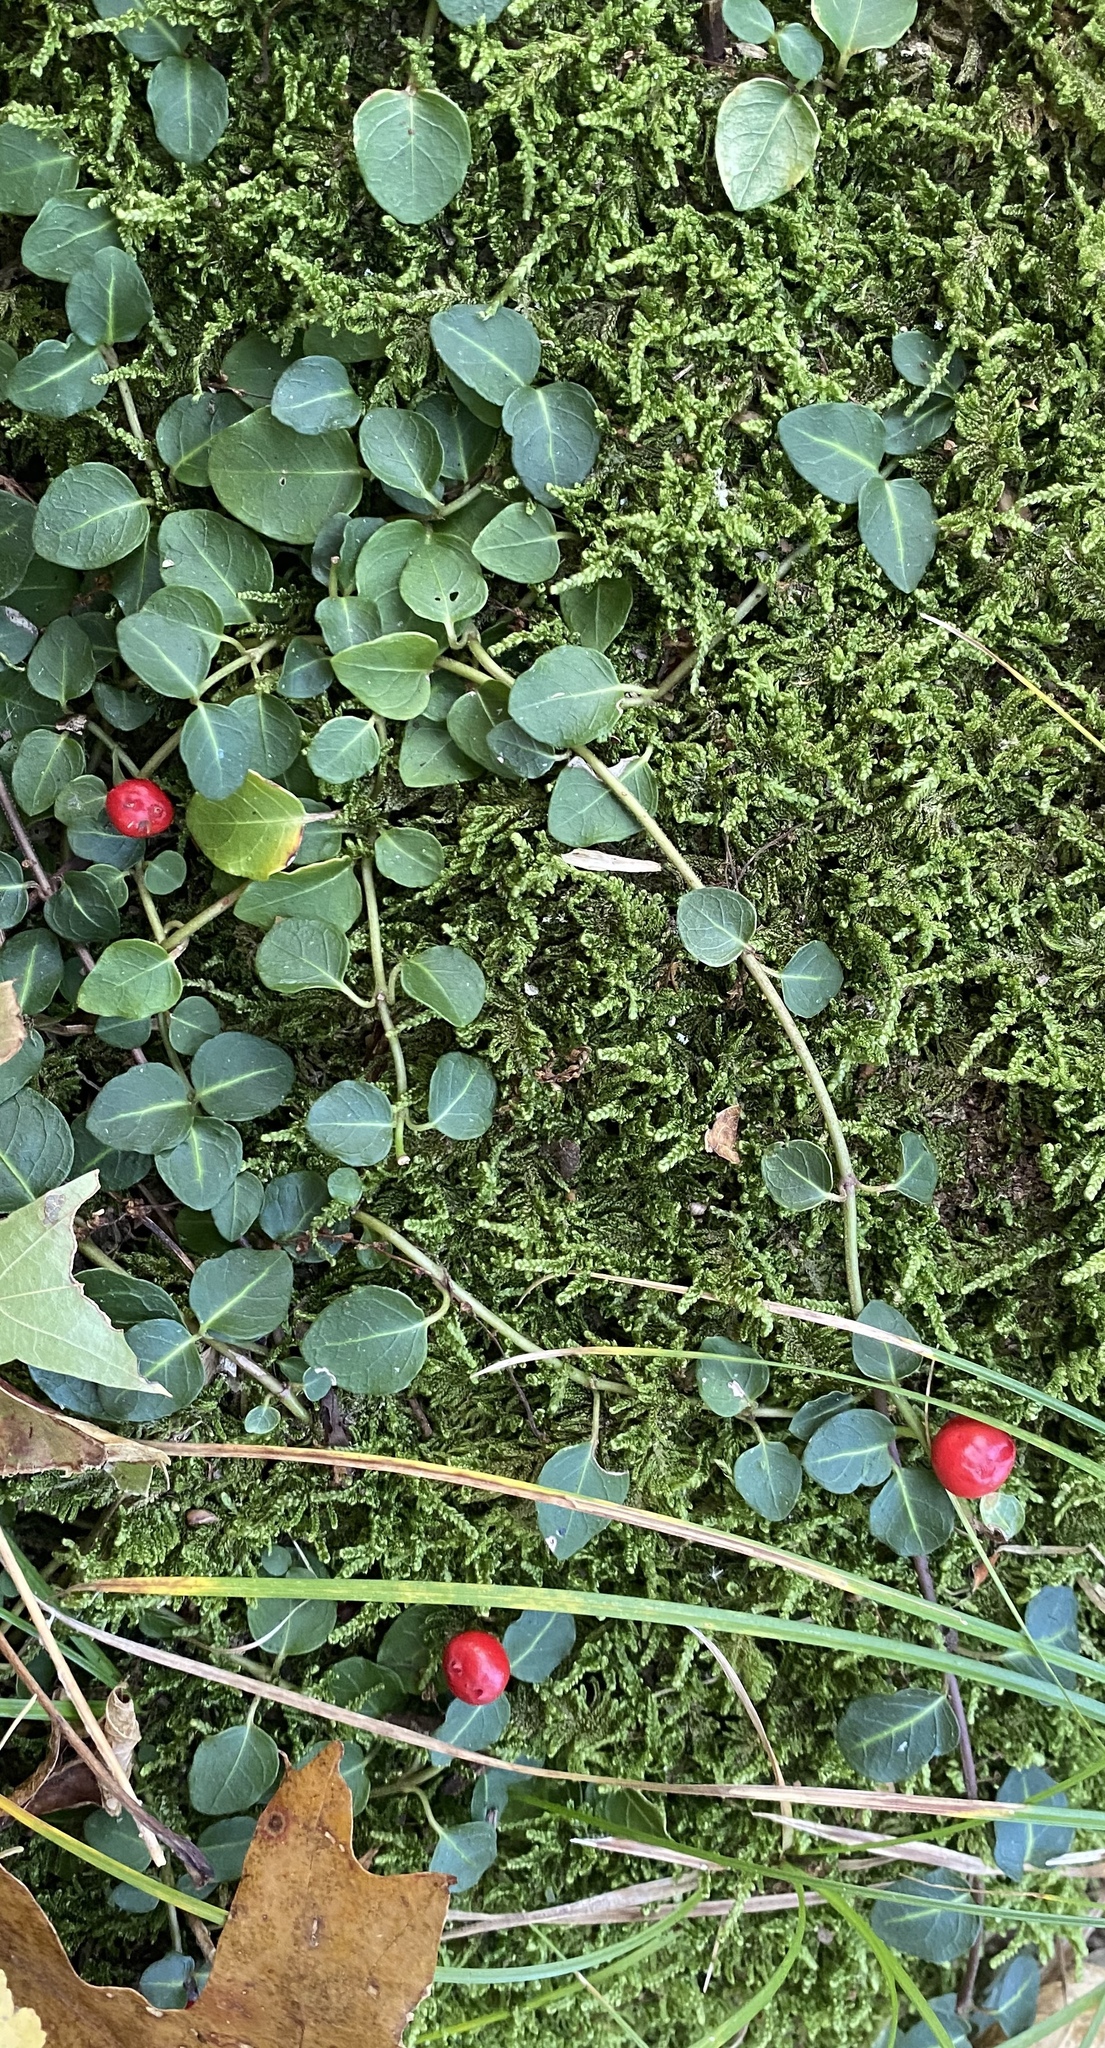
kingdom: Plantae
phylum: Tracheophyta
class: Magnoliopsida
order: Gentianales
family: Rubiaceae
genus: Mitchella
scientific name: Mitchella repens
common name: Partridge-berry
